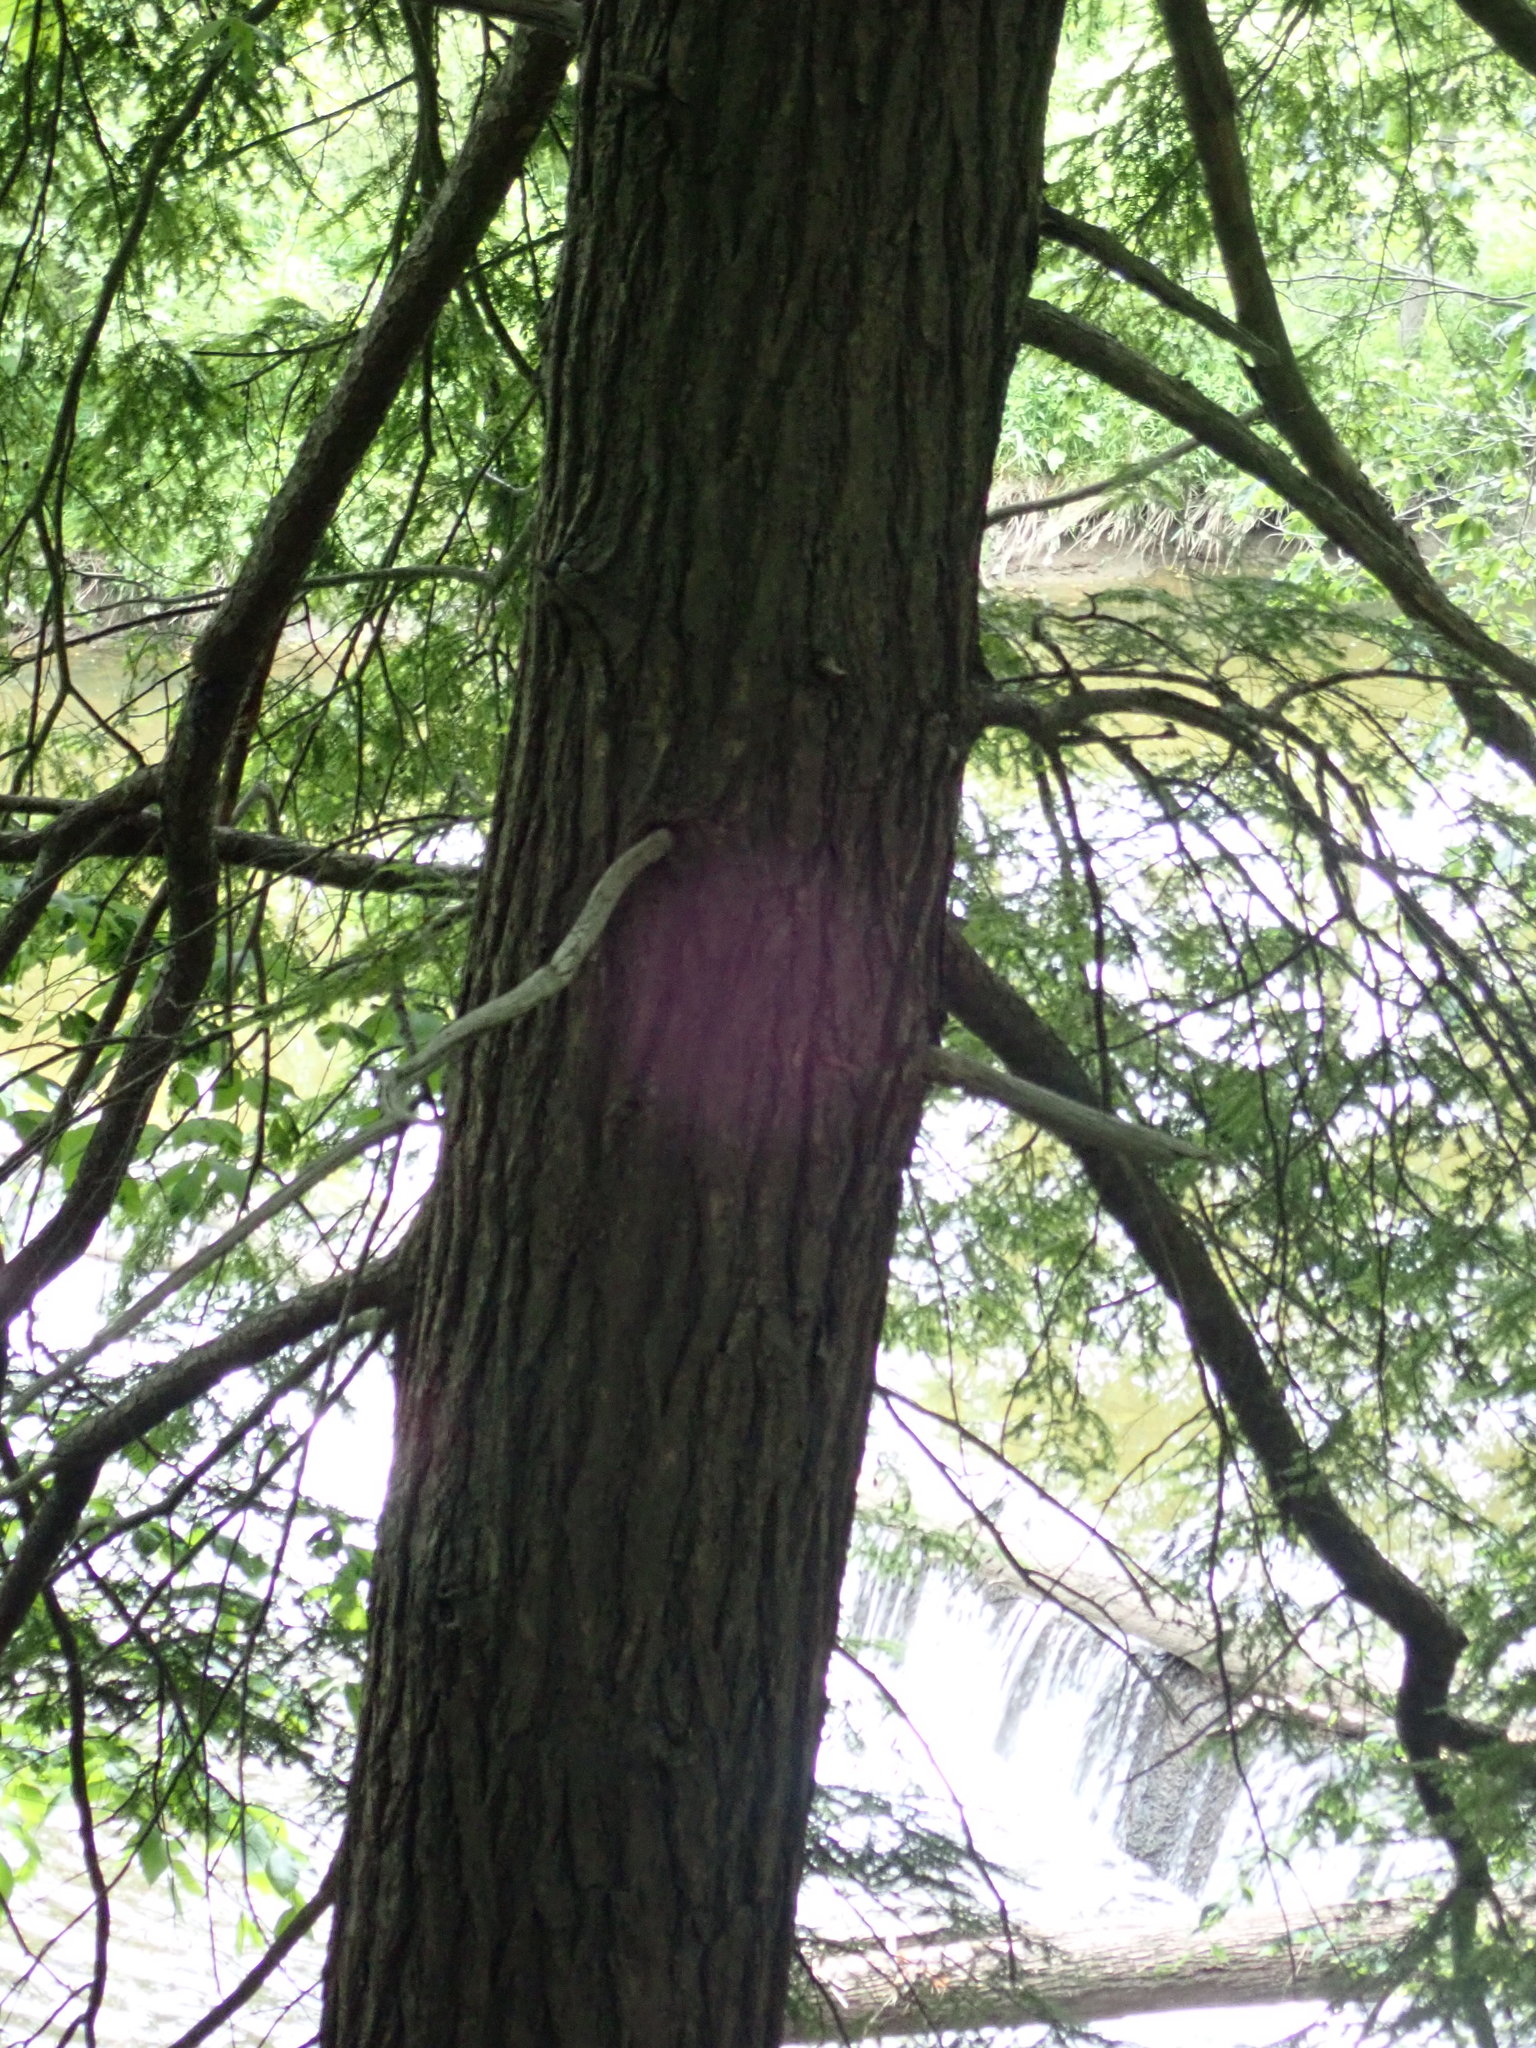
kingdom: Plantae
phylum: Tracheophyta
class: Pinopsida
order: Pinales
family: Pinaceae
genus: Tsuga
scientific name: Tsuga canadensis
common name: Eastern hemlock
